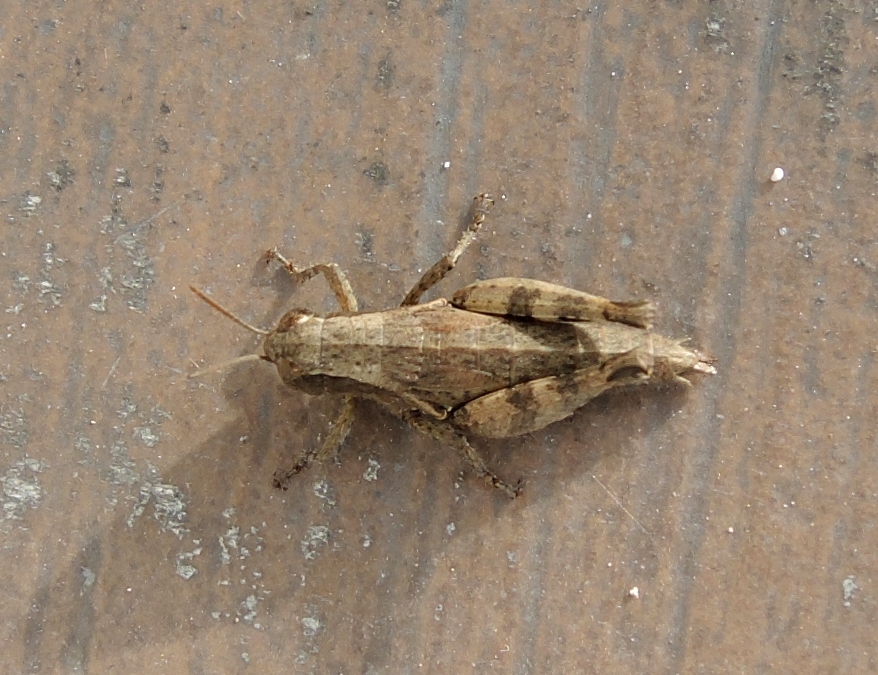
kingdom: Animalia
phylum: Arthropoda
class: Insecta
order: Orthoptera
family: Acrididae
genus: Pezotettix
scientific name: Pezotettix giornae
